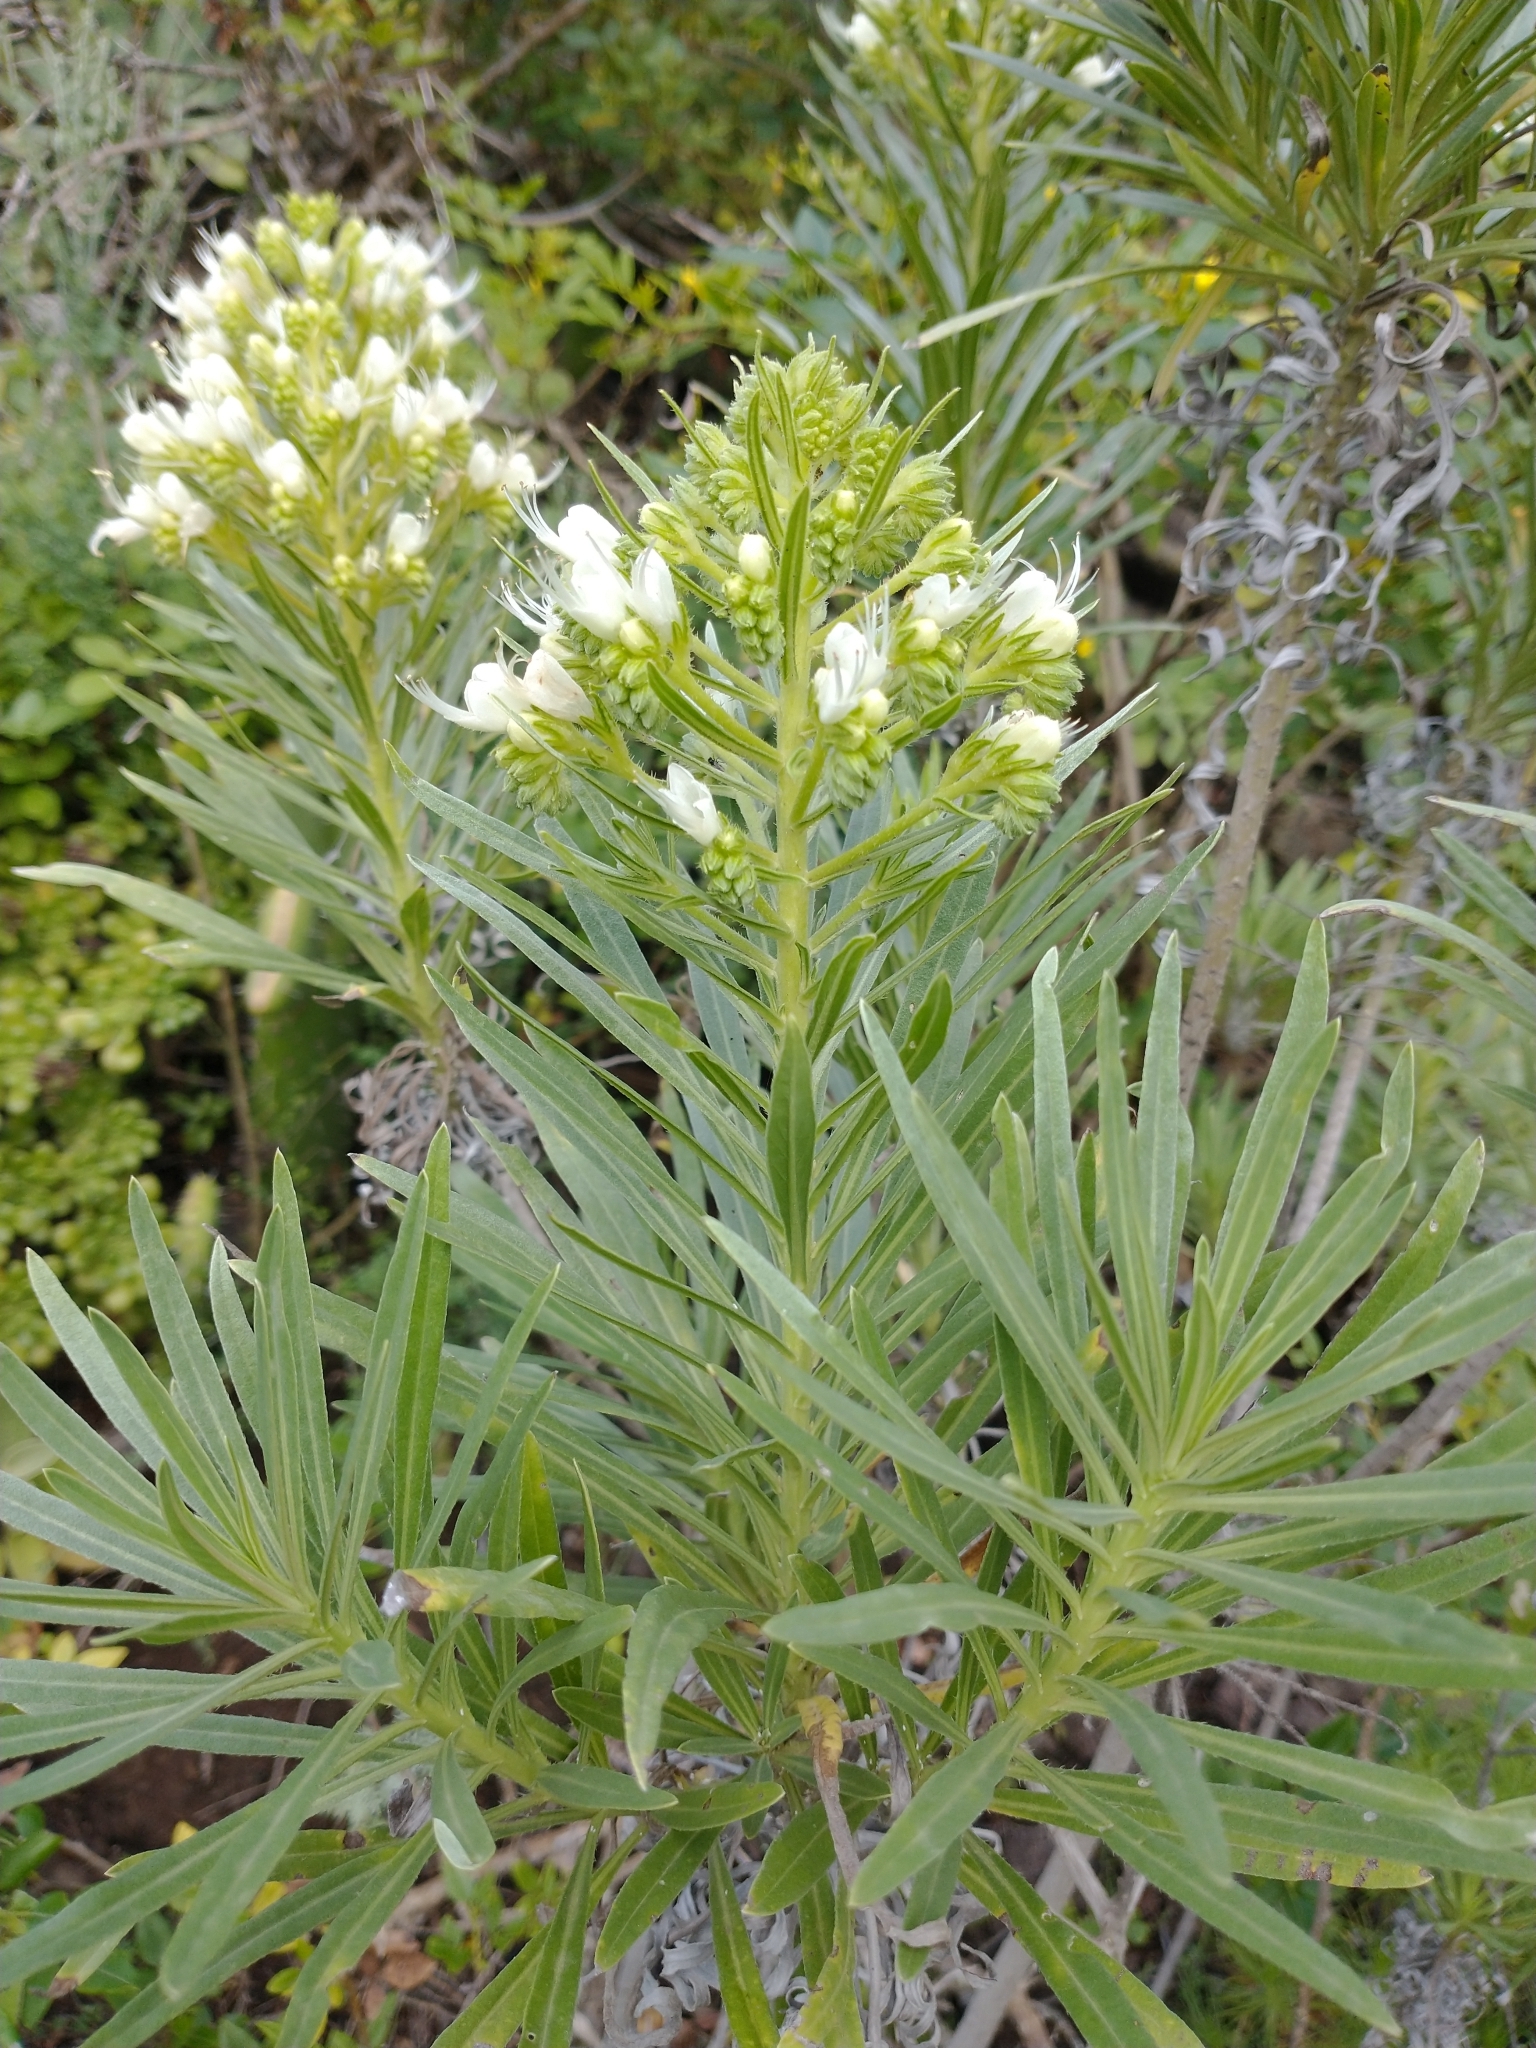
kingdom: Plantae
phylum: Tracheophyta
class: Magnoliopsida
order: Boraginales
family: Boraginaceae
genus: Echium
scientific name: Echium leucophaeum
